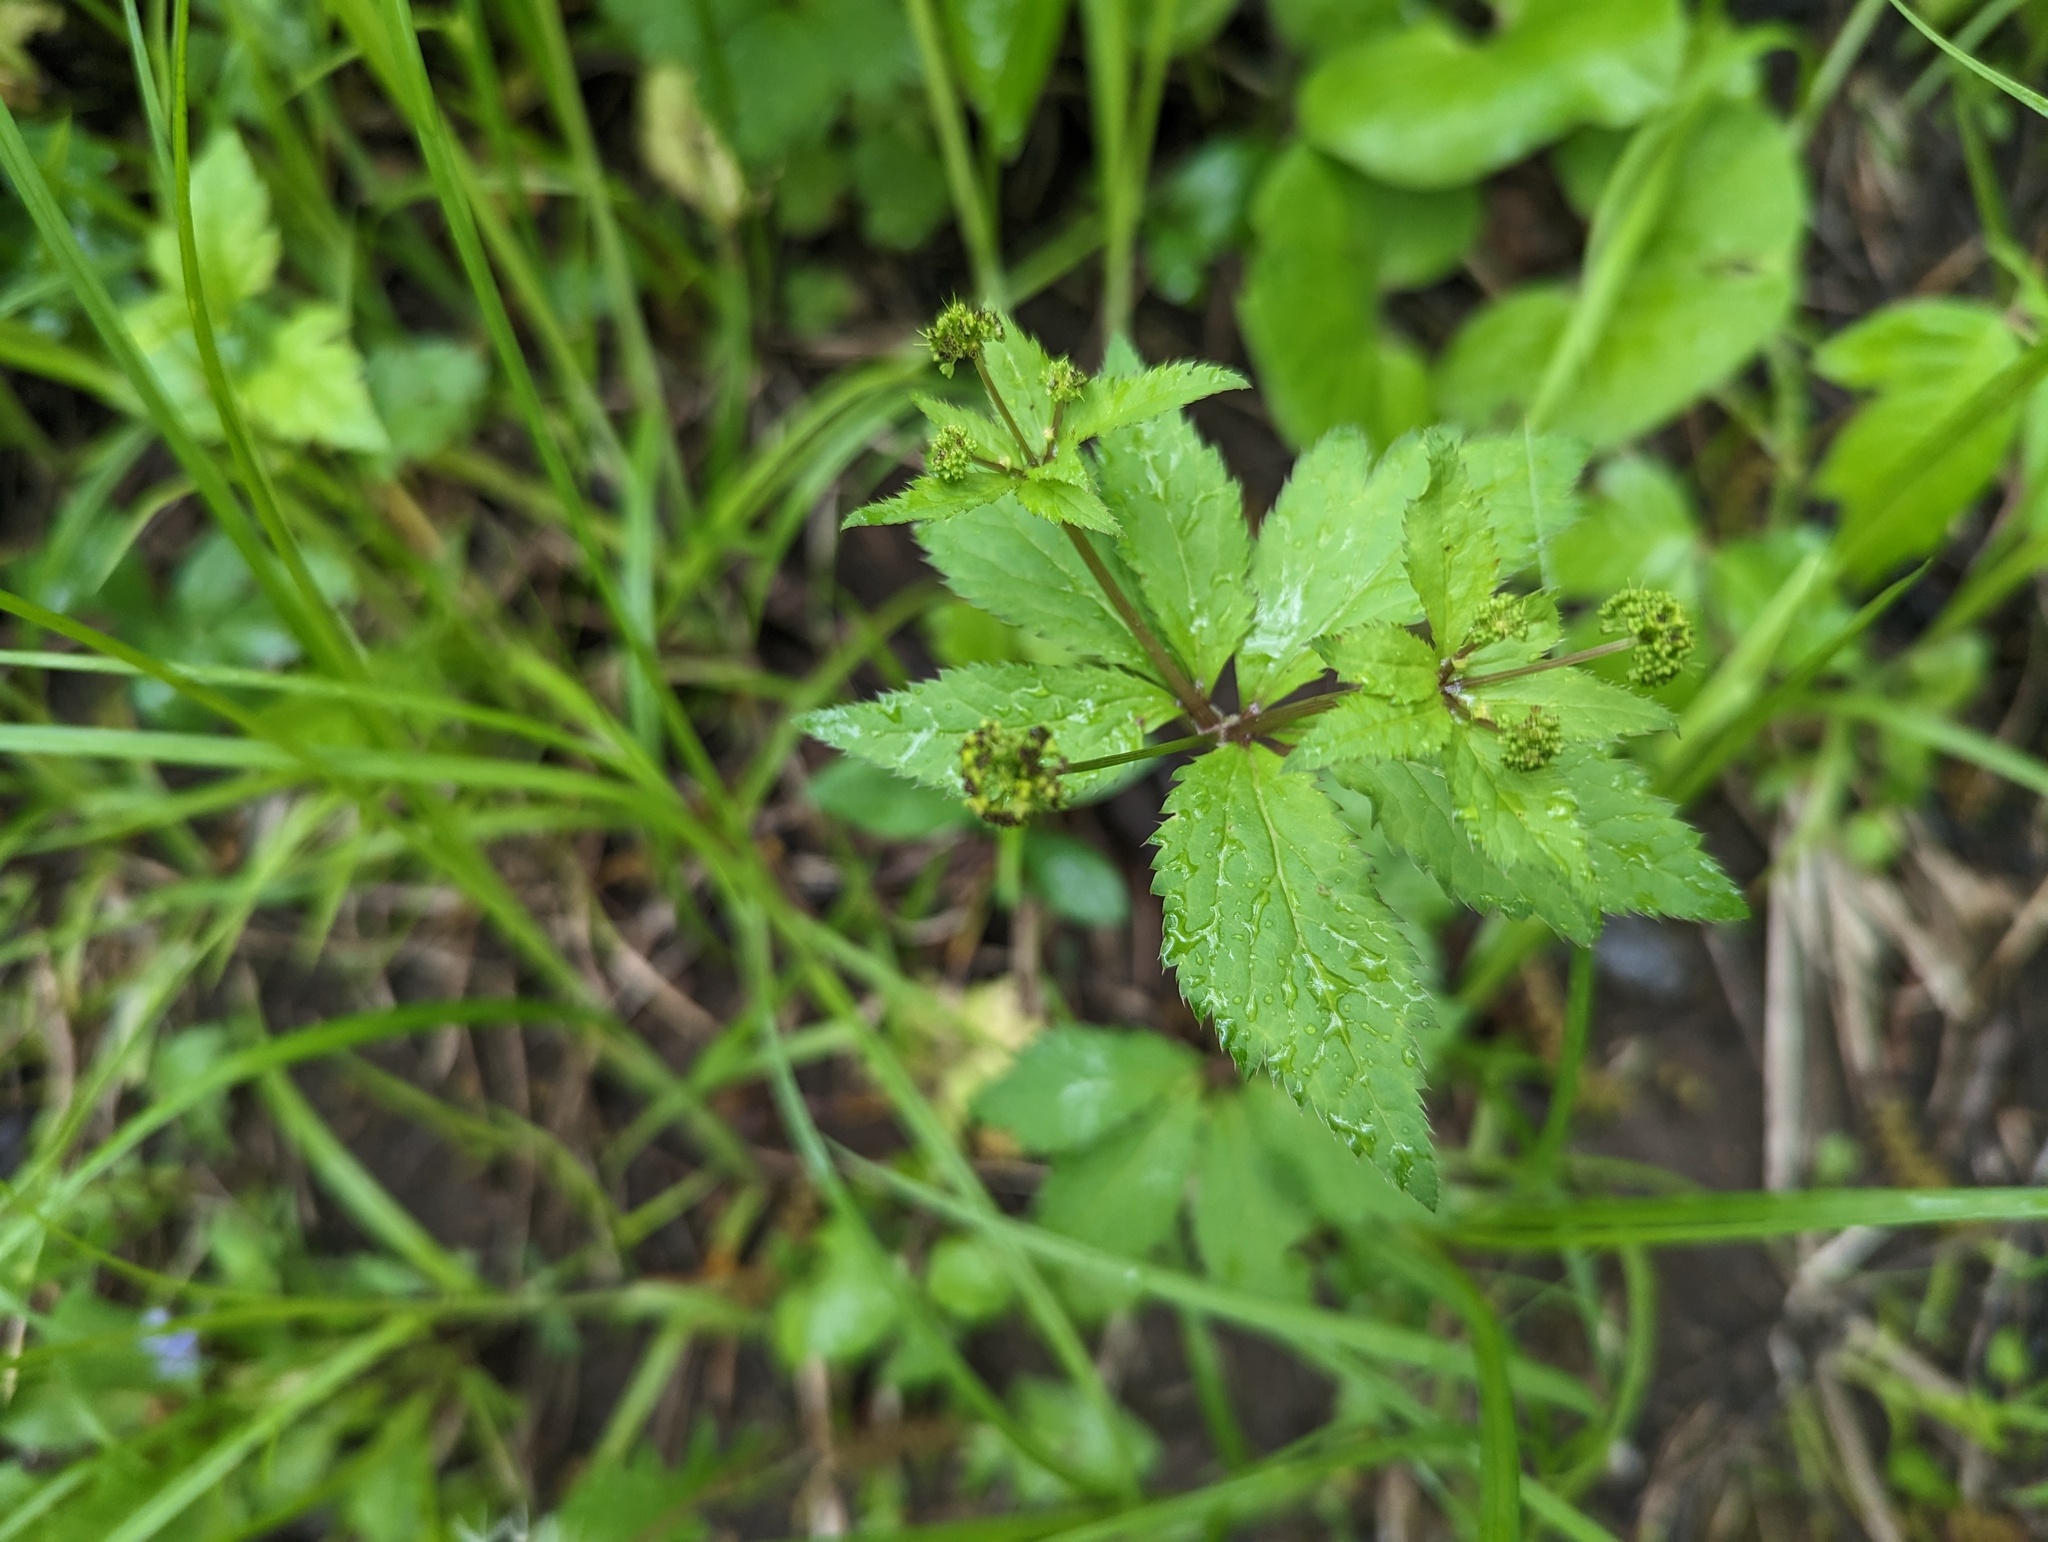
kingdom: Plantae
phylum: Tracheophyta
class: Magnoliopsida
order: Apiales
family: Apiaceae
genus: Sanicula
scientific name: Sanicula odorata
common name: Cluster sanicle
